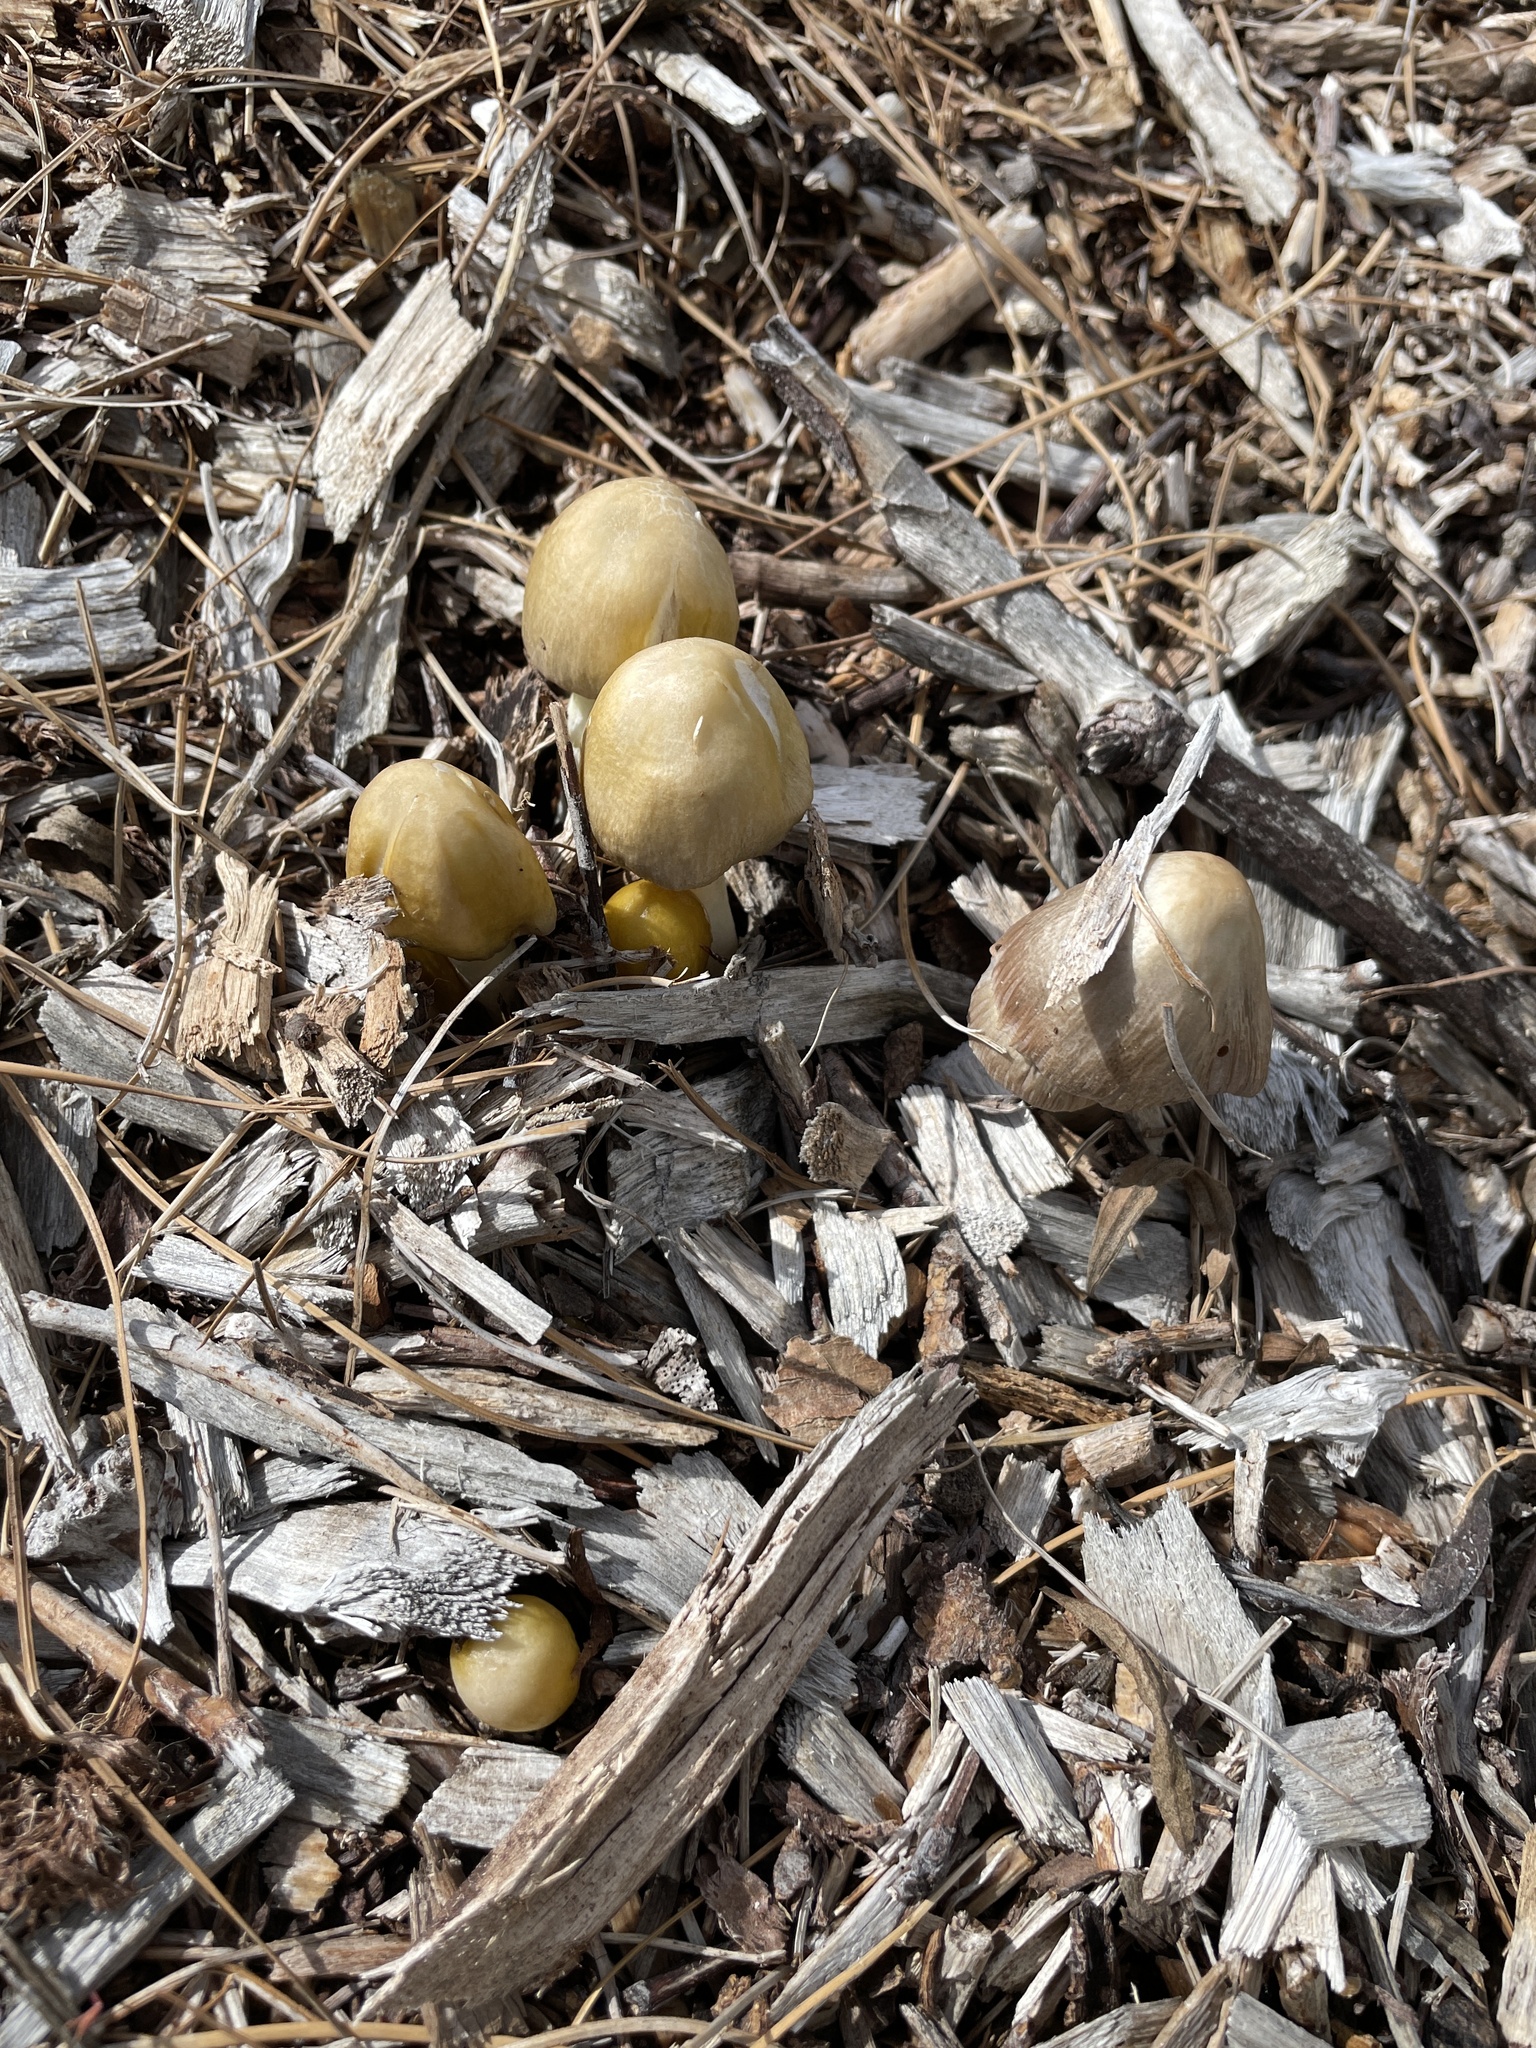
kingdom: Fungi
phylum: Basidiomycota
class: Agaricomycetes
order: Agaricales
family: Bolbitiaceae
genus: Bolbitius
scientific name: Bolbitius titubans
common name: Yellow fieldcap
